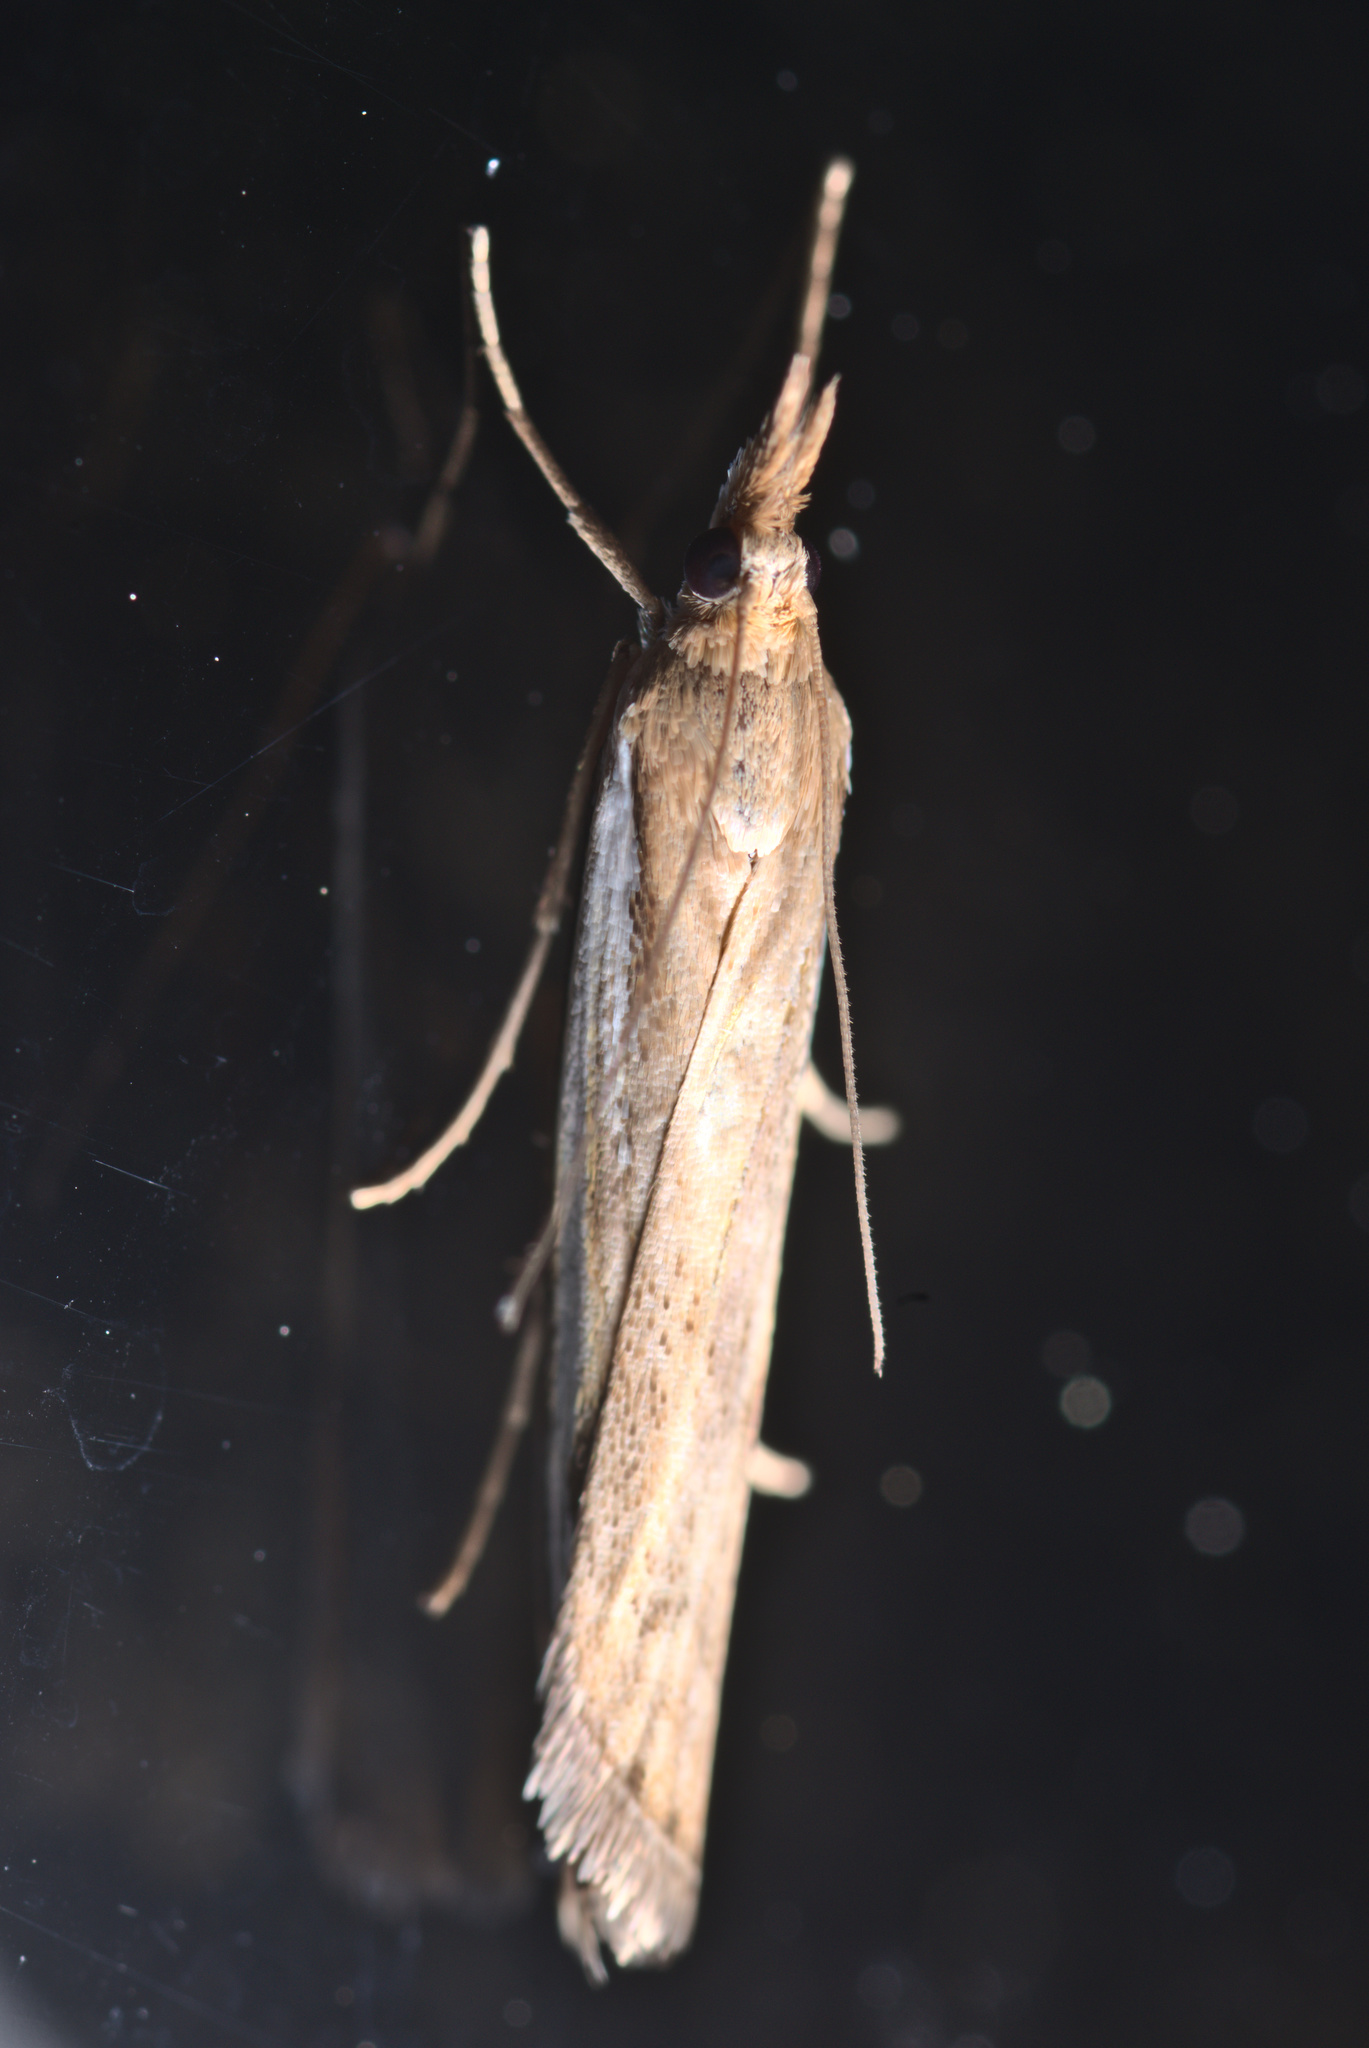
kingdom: Animalia
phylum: Arthropoda
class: Insecta
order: Lepidoptera
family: Crambidae
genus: Orocrambus
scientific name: Orocrambus flexuosellus
